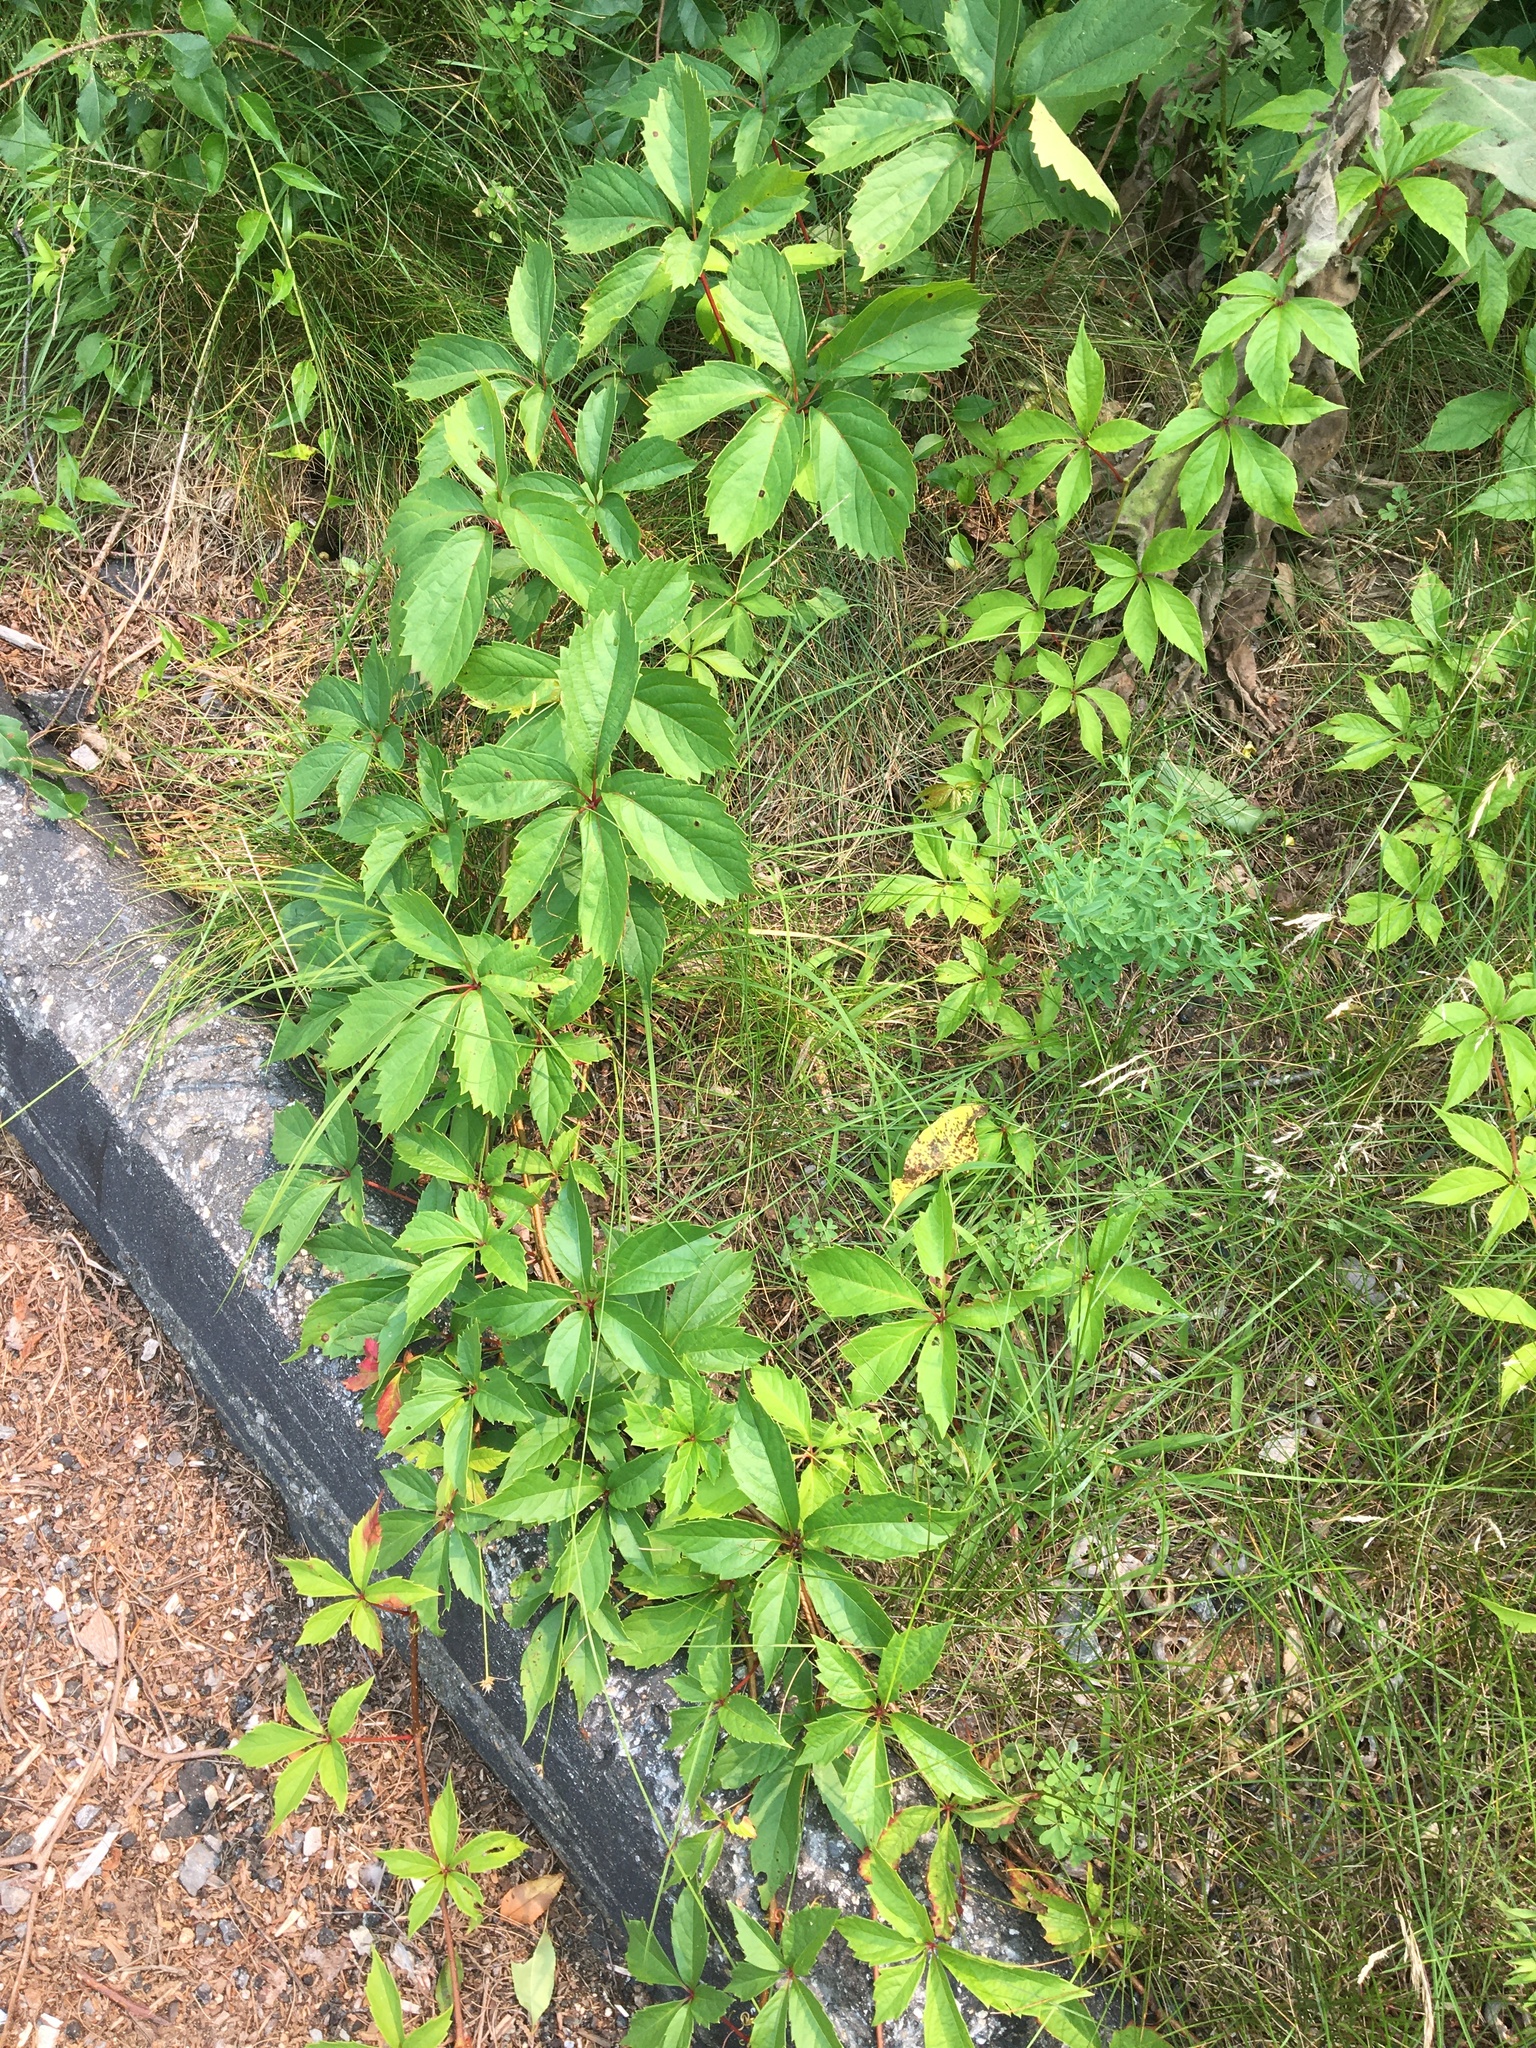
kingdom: Plantae
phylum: Tracheophyta
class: Magnoliopsida
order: Vitales
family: Vitaceae
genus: Parthenocissus
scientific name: Parthenocissus quinquefolia
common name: Virginia-creeper
